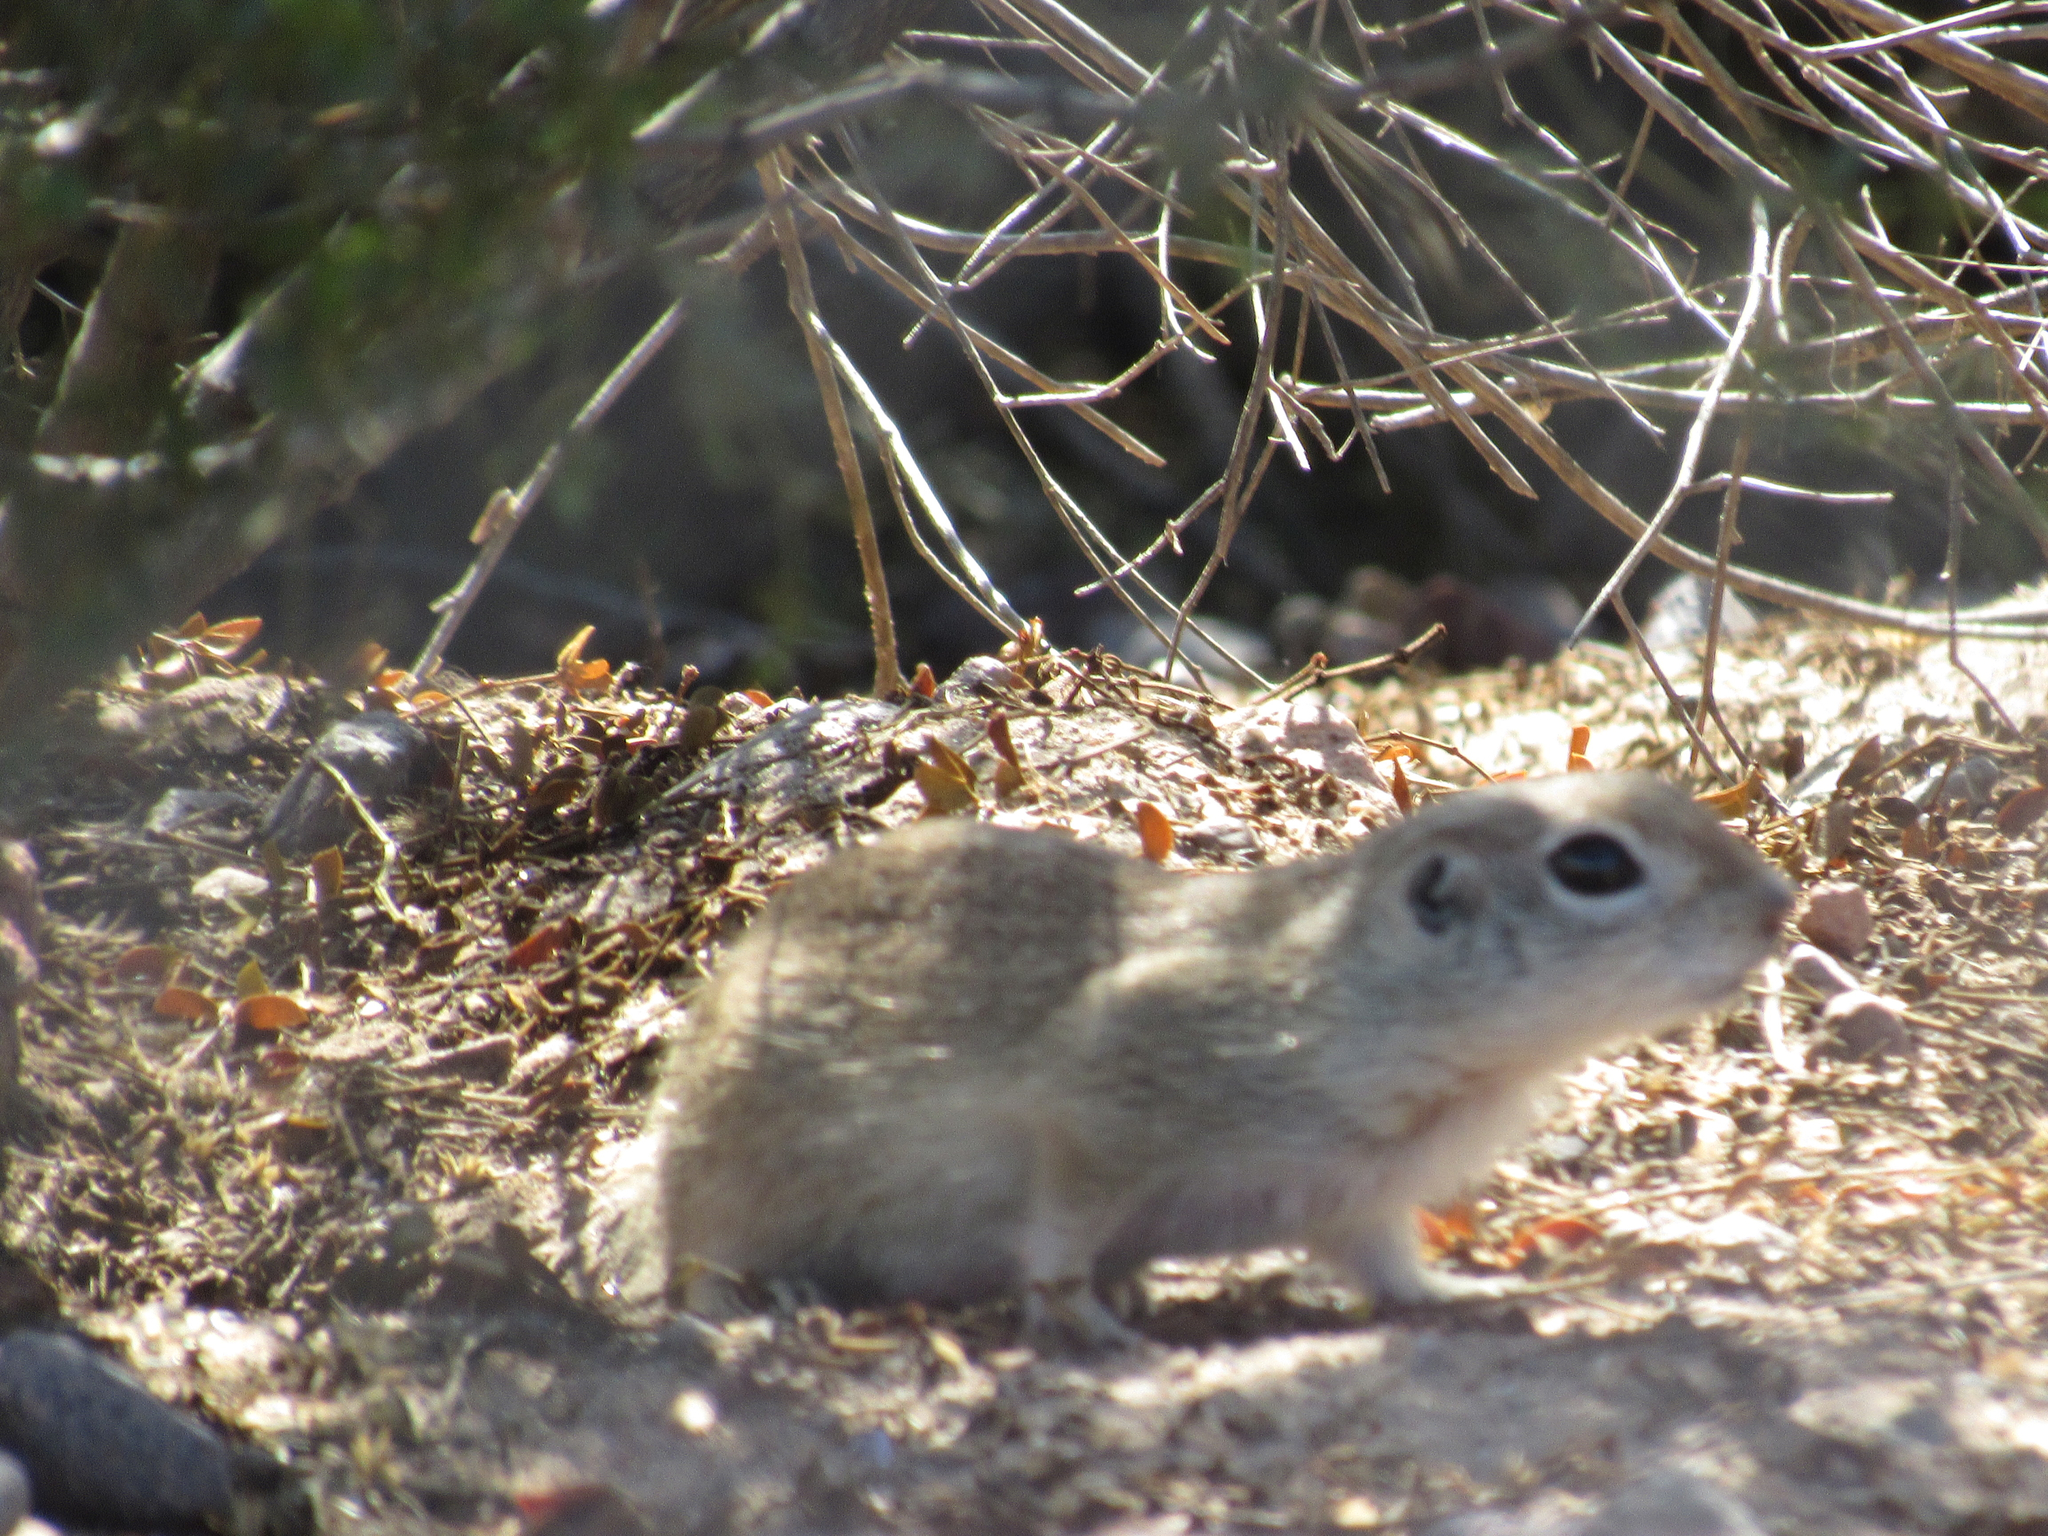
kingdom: Animalia
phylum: Chordata
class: Mammalia
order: Rodentia
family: Sciuridae
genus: Xerospermophilus
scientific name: Xerospermophilus tereticaudus
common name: Round-tailed ground squirrel
